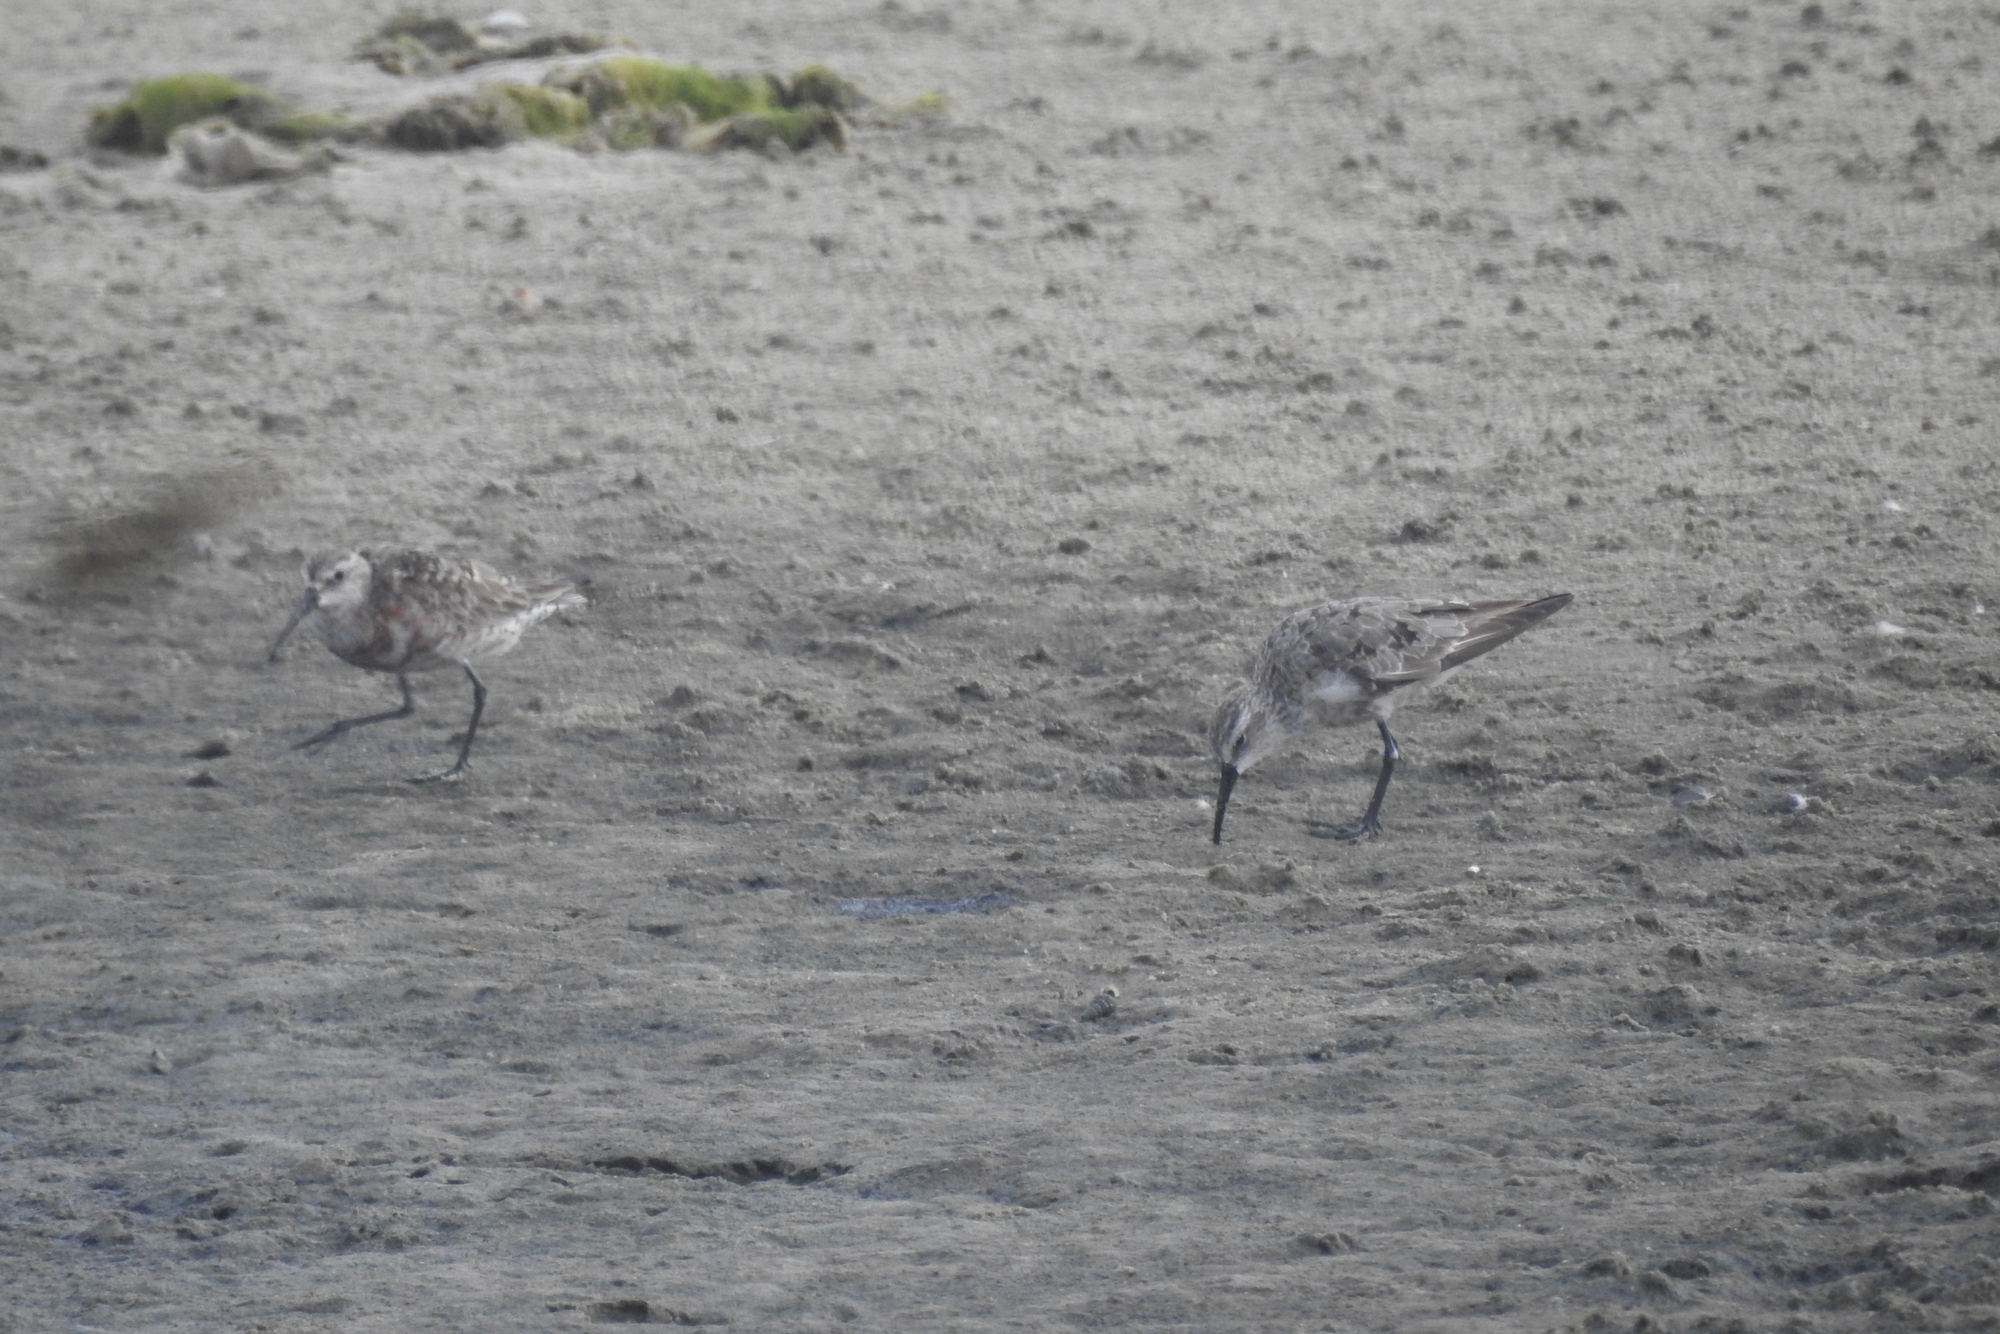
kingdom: Animalia
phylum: Chordata
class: Aves
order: Charadriiformes
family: Scolopacidae
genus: Calidris
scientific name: Calidris ferruginea
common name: Curlew sandpiper
